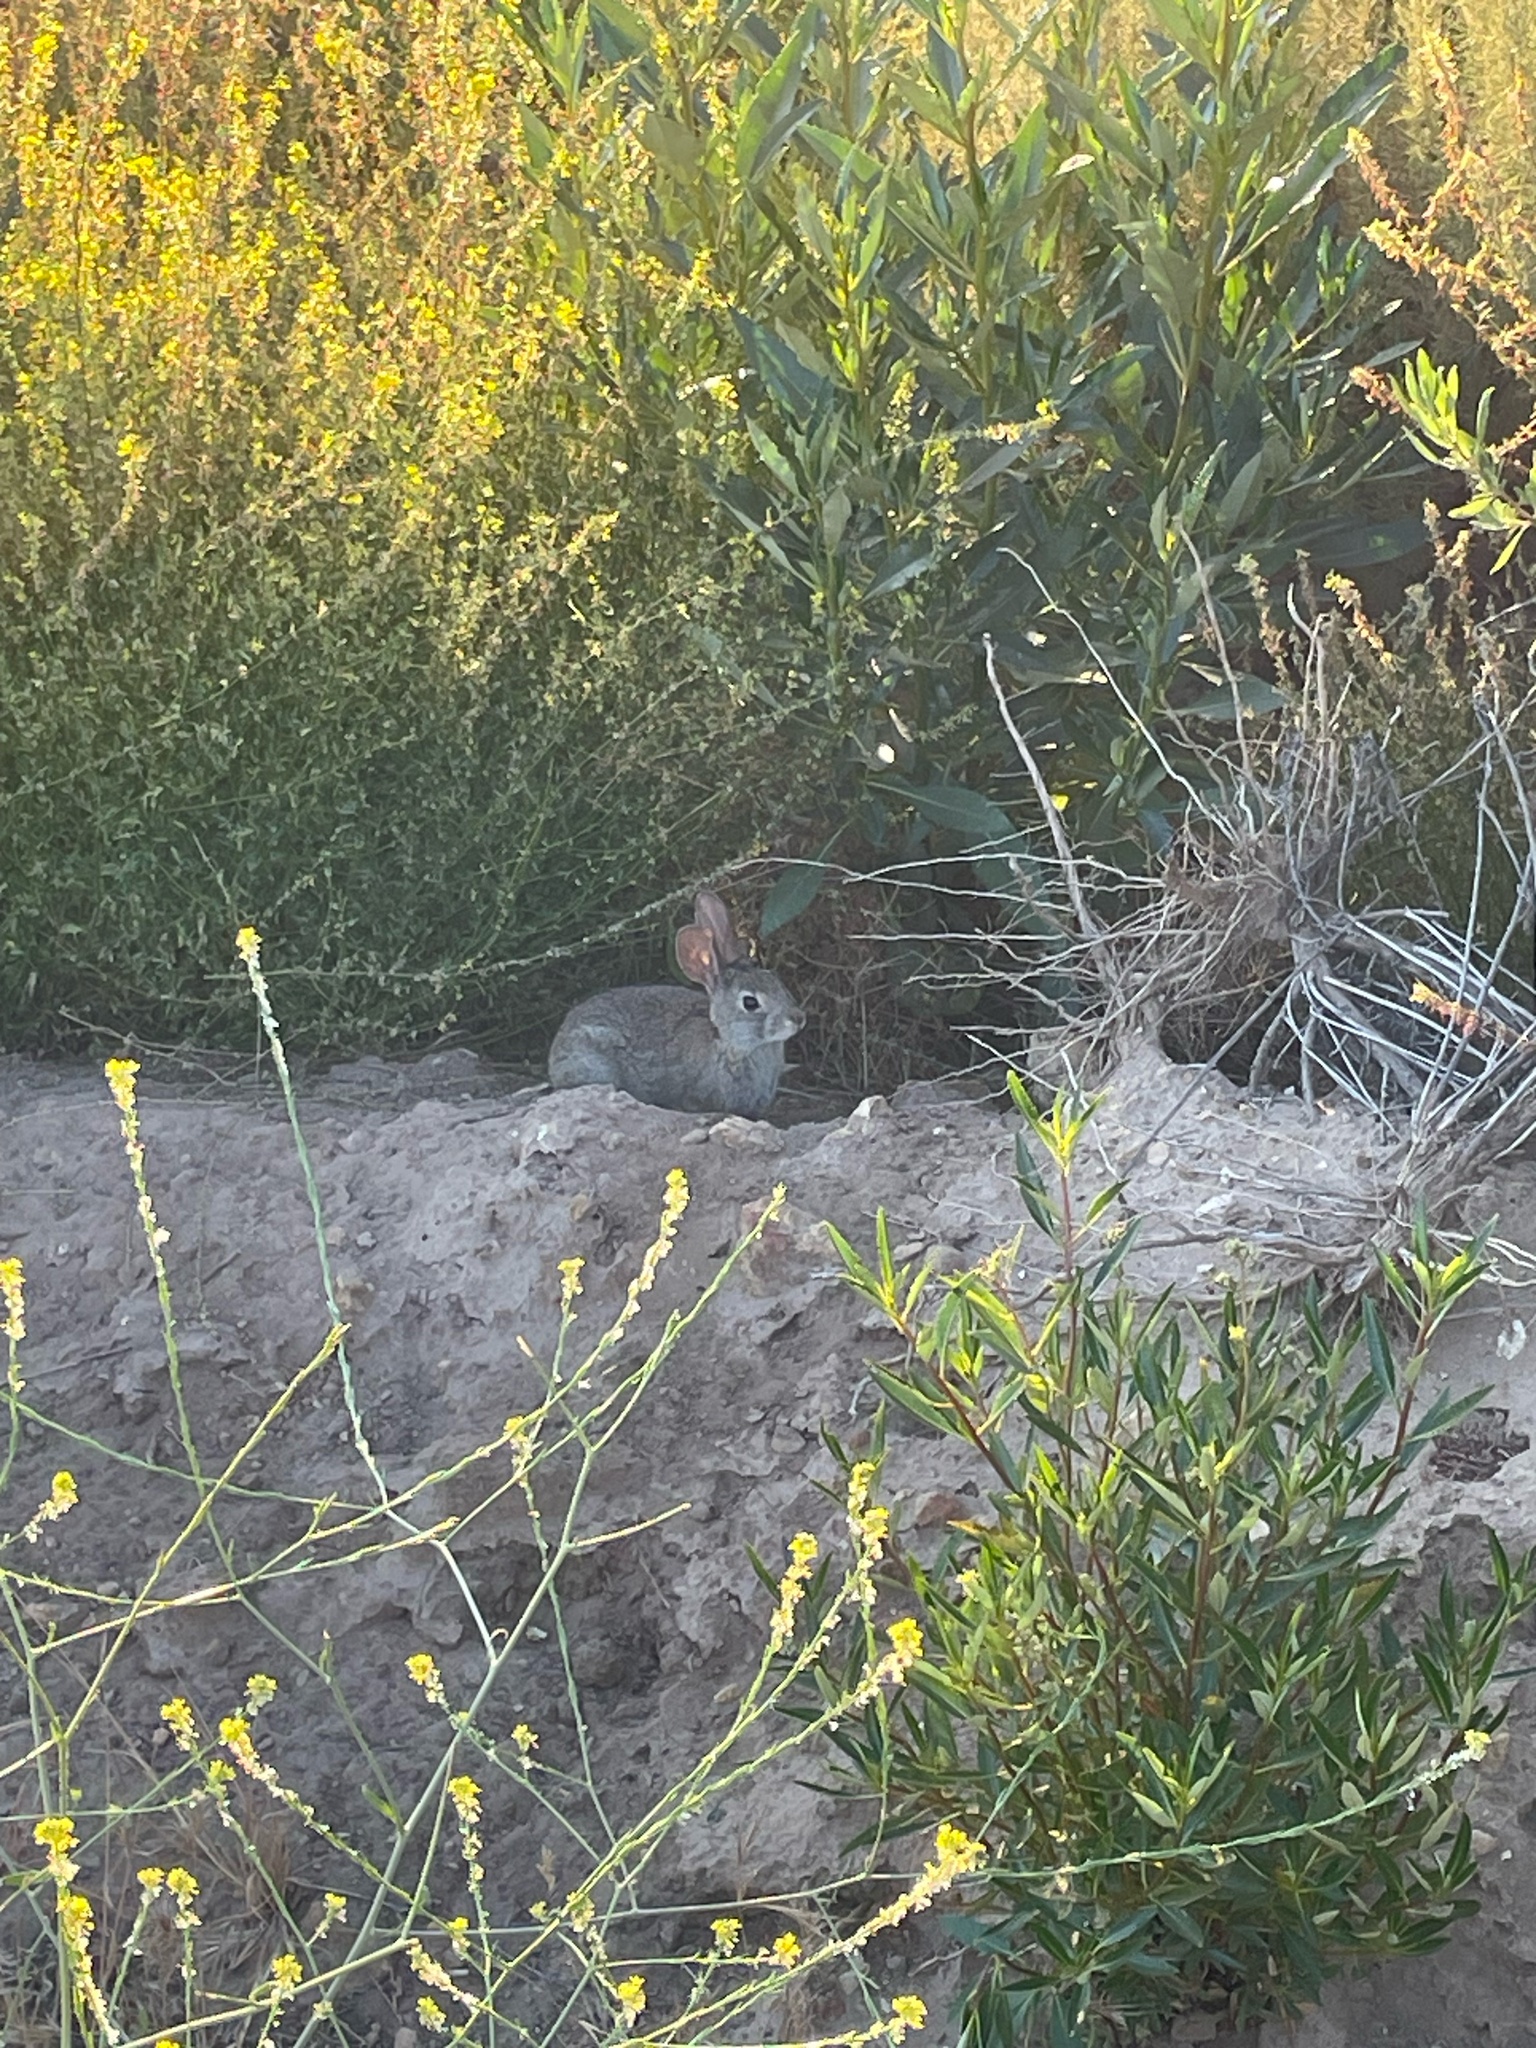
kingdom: Animalia
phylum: Chordata
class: Mammalia
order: Lagomorpha
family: Leporidae
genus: Sylvilagus
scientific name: Sylvilagus bachmani
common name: Brush rabbit
